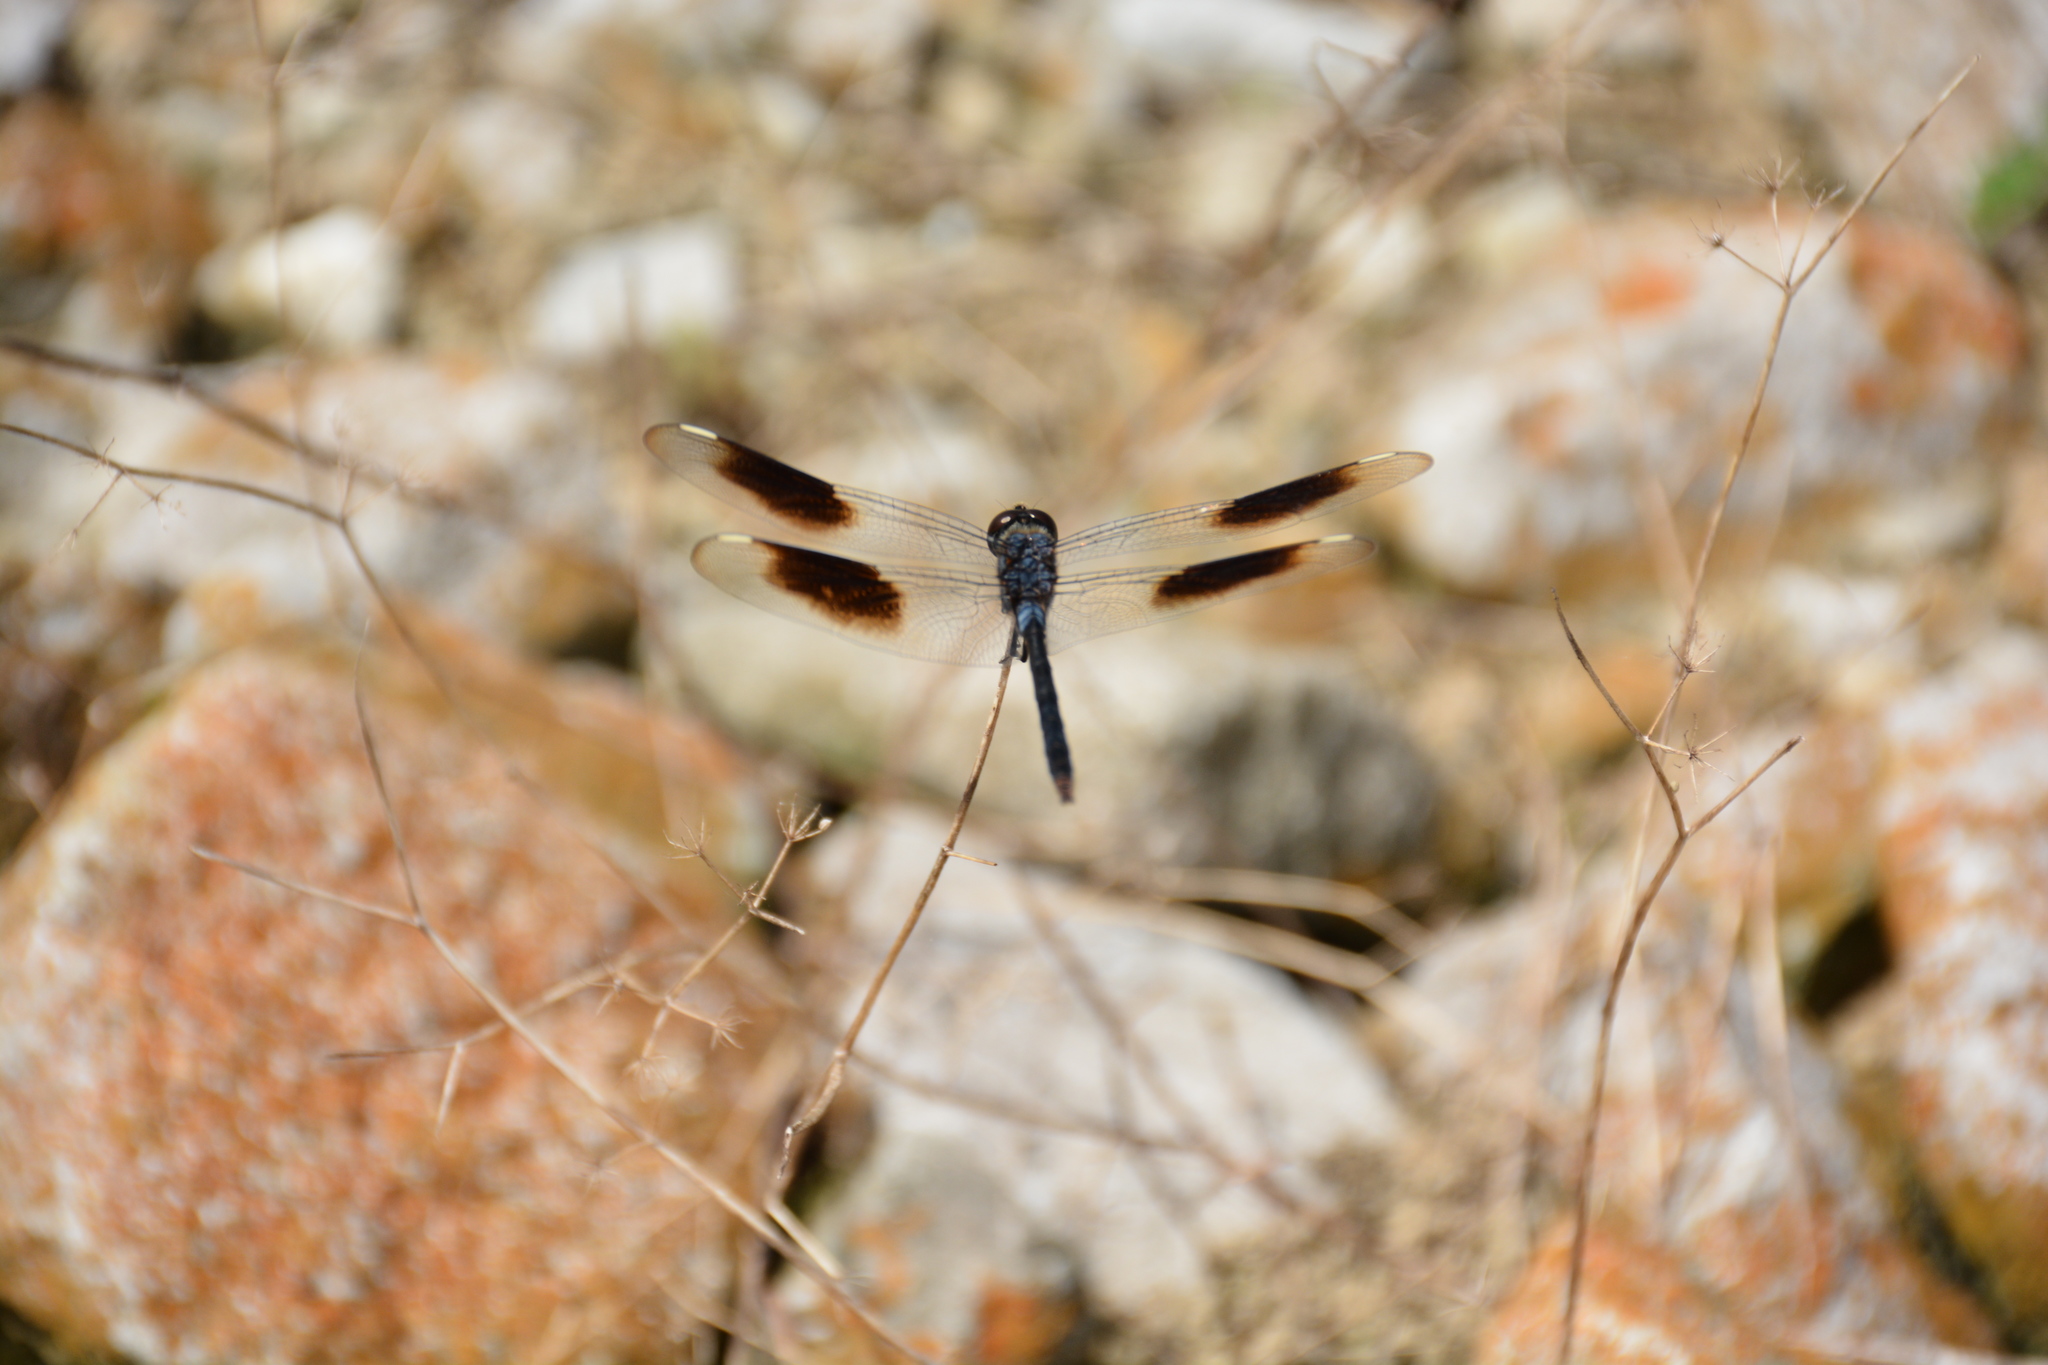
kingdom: Animalia
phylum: Arthropoda
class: Insecta
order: Odonata
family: Libellulidae
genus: Brachymesia
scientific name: Brachymesia gravida
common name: Four-spotted pennant
